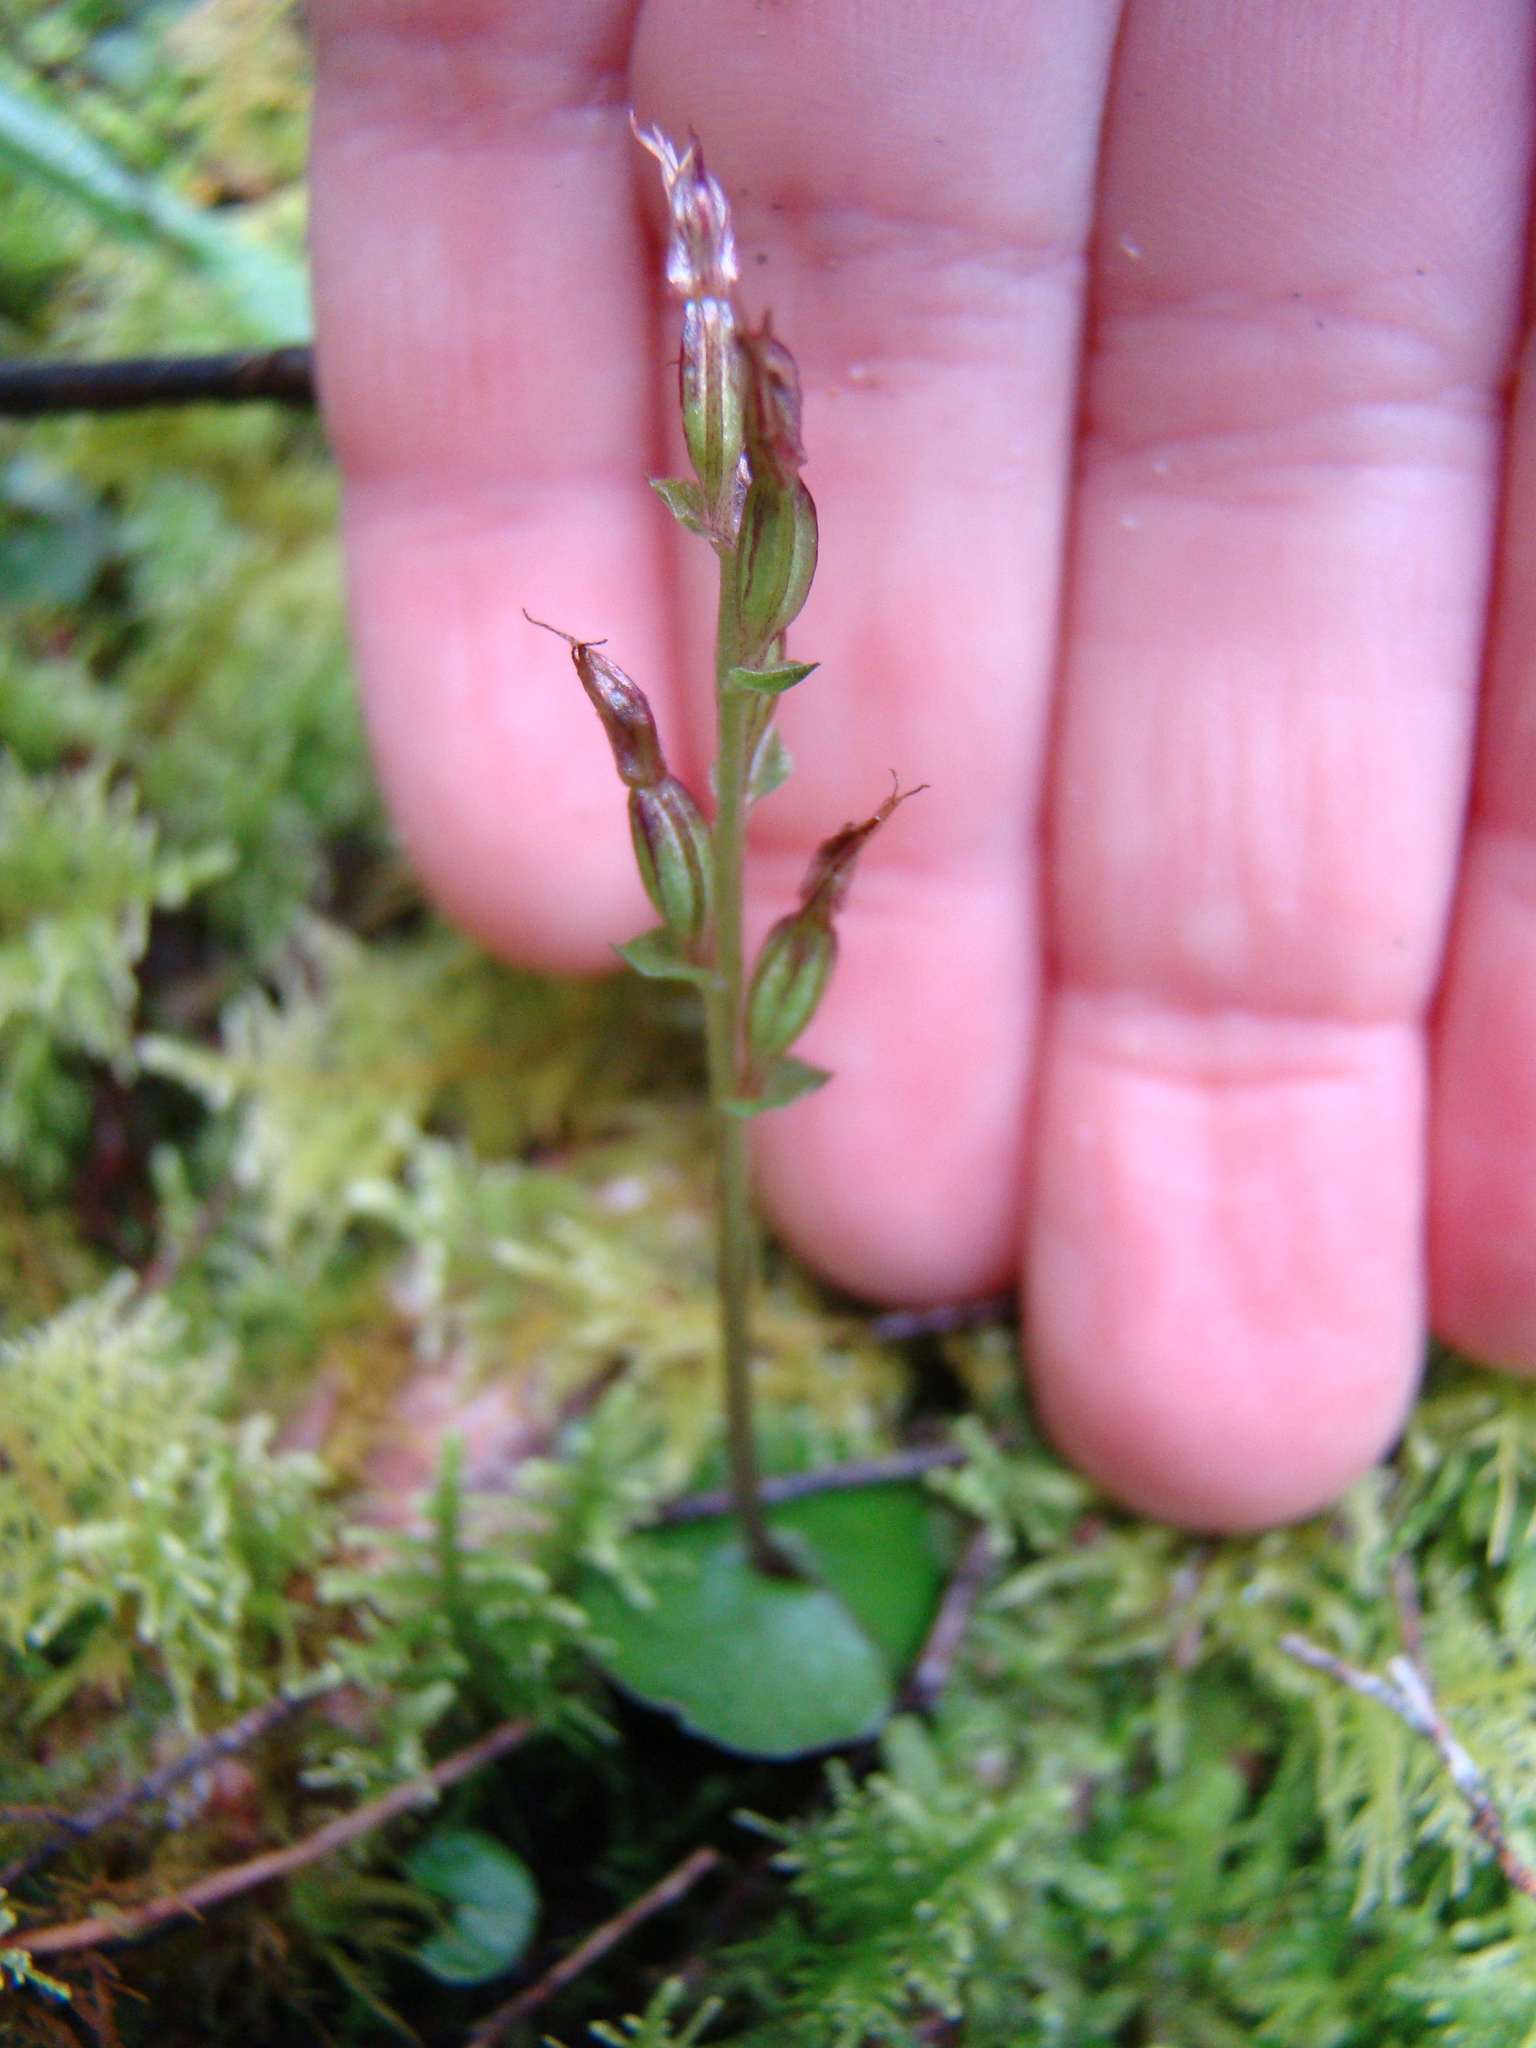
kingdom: Plantae
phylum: Tracheophyta
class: Liliopsida
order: Asparagales
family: Orchidaceae
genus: Acianthus
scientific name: Acianthus sinclairii
